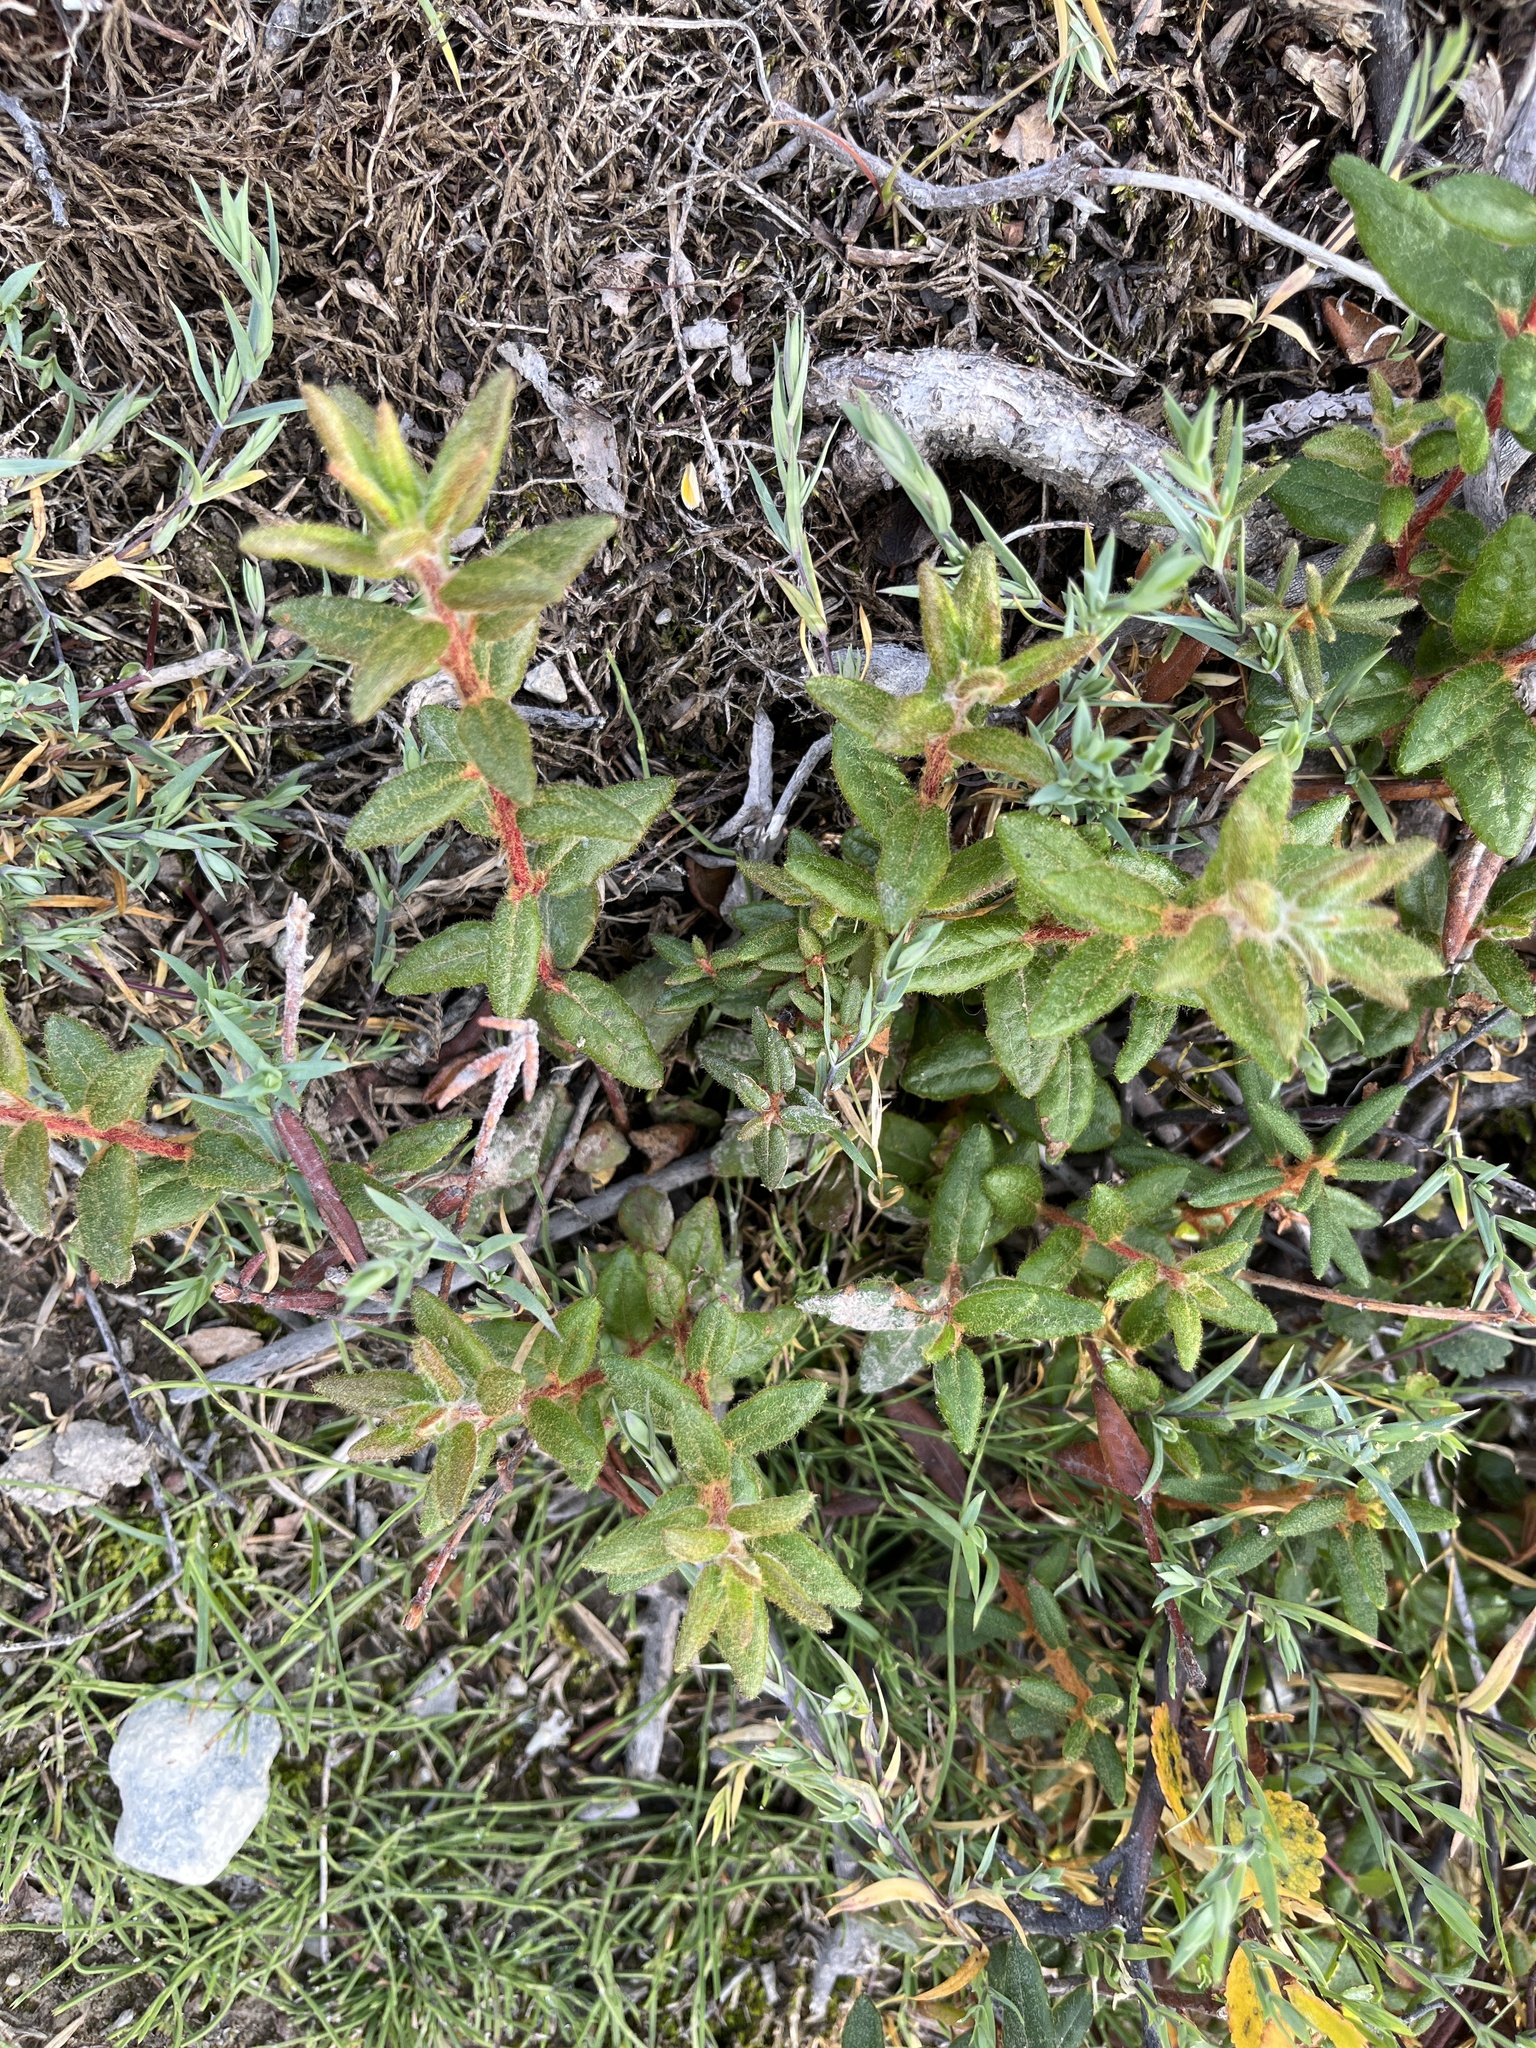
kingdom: Plantae
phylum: Tracheophyta
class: Magnoliopsida
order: Ericales
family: Ericaceae
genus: Rhododendron
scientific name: Rhododendron groenlandicum
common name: Bog labrador tea
